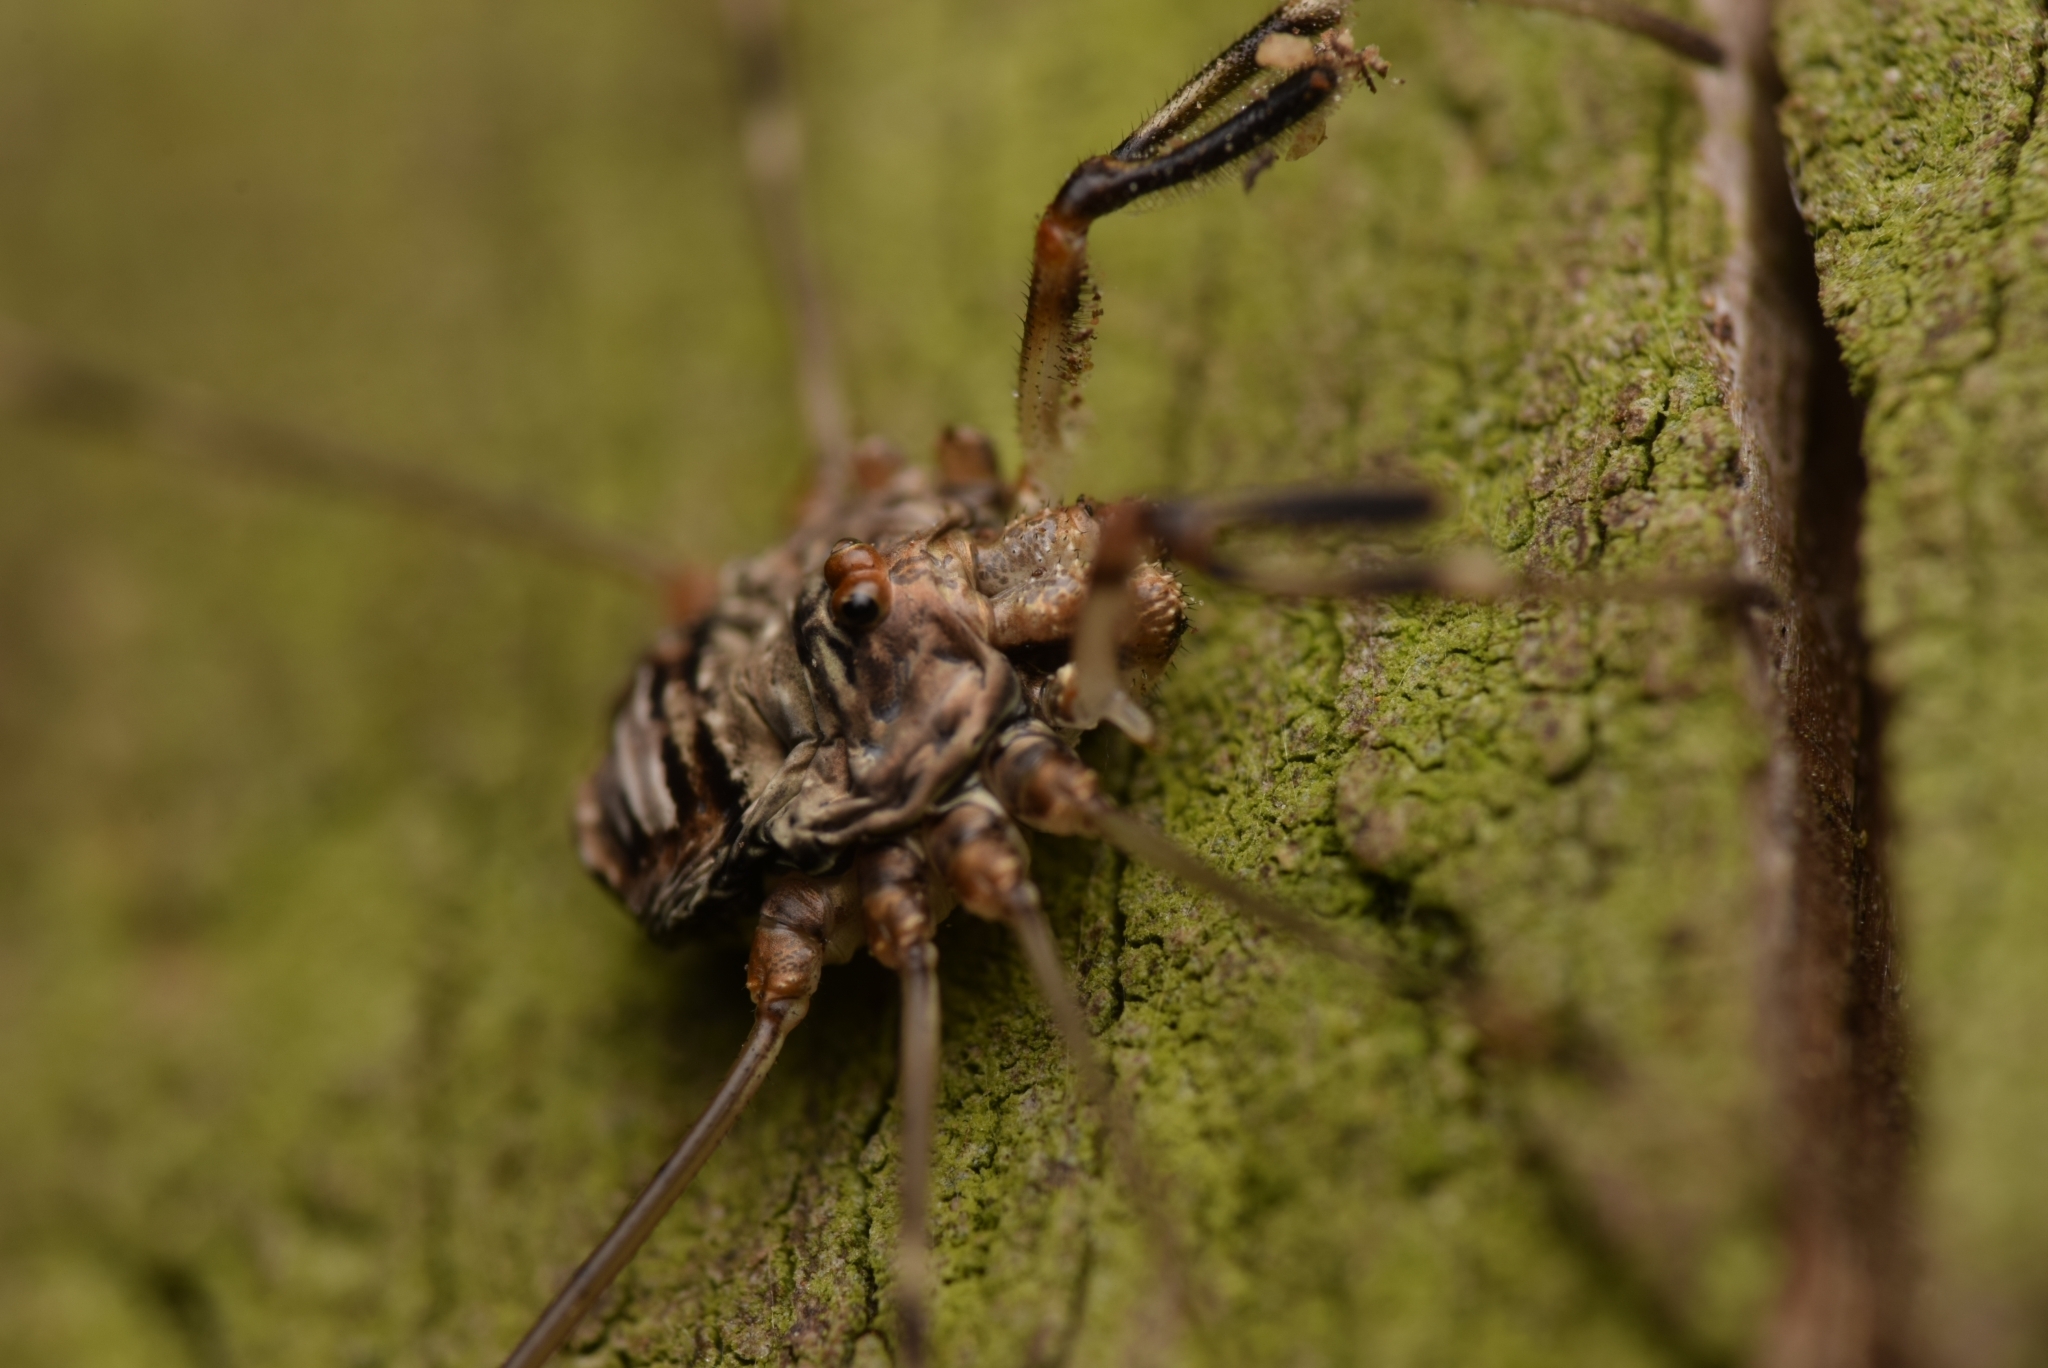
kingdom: Animalia
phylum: Arthropoda
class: Arachnida
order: Opiliones
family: Phalangiidae
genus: Dicranopalpus
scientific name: Dicranopalpus ramosus
